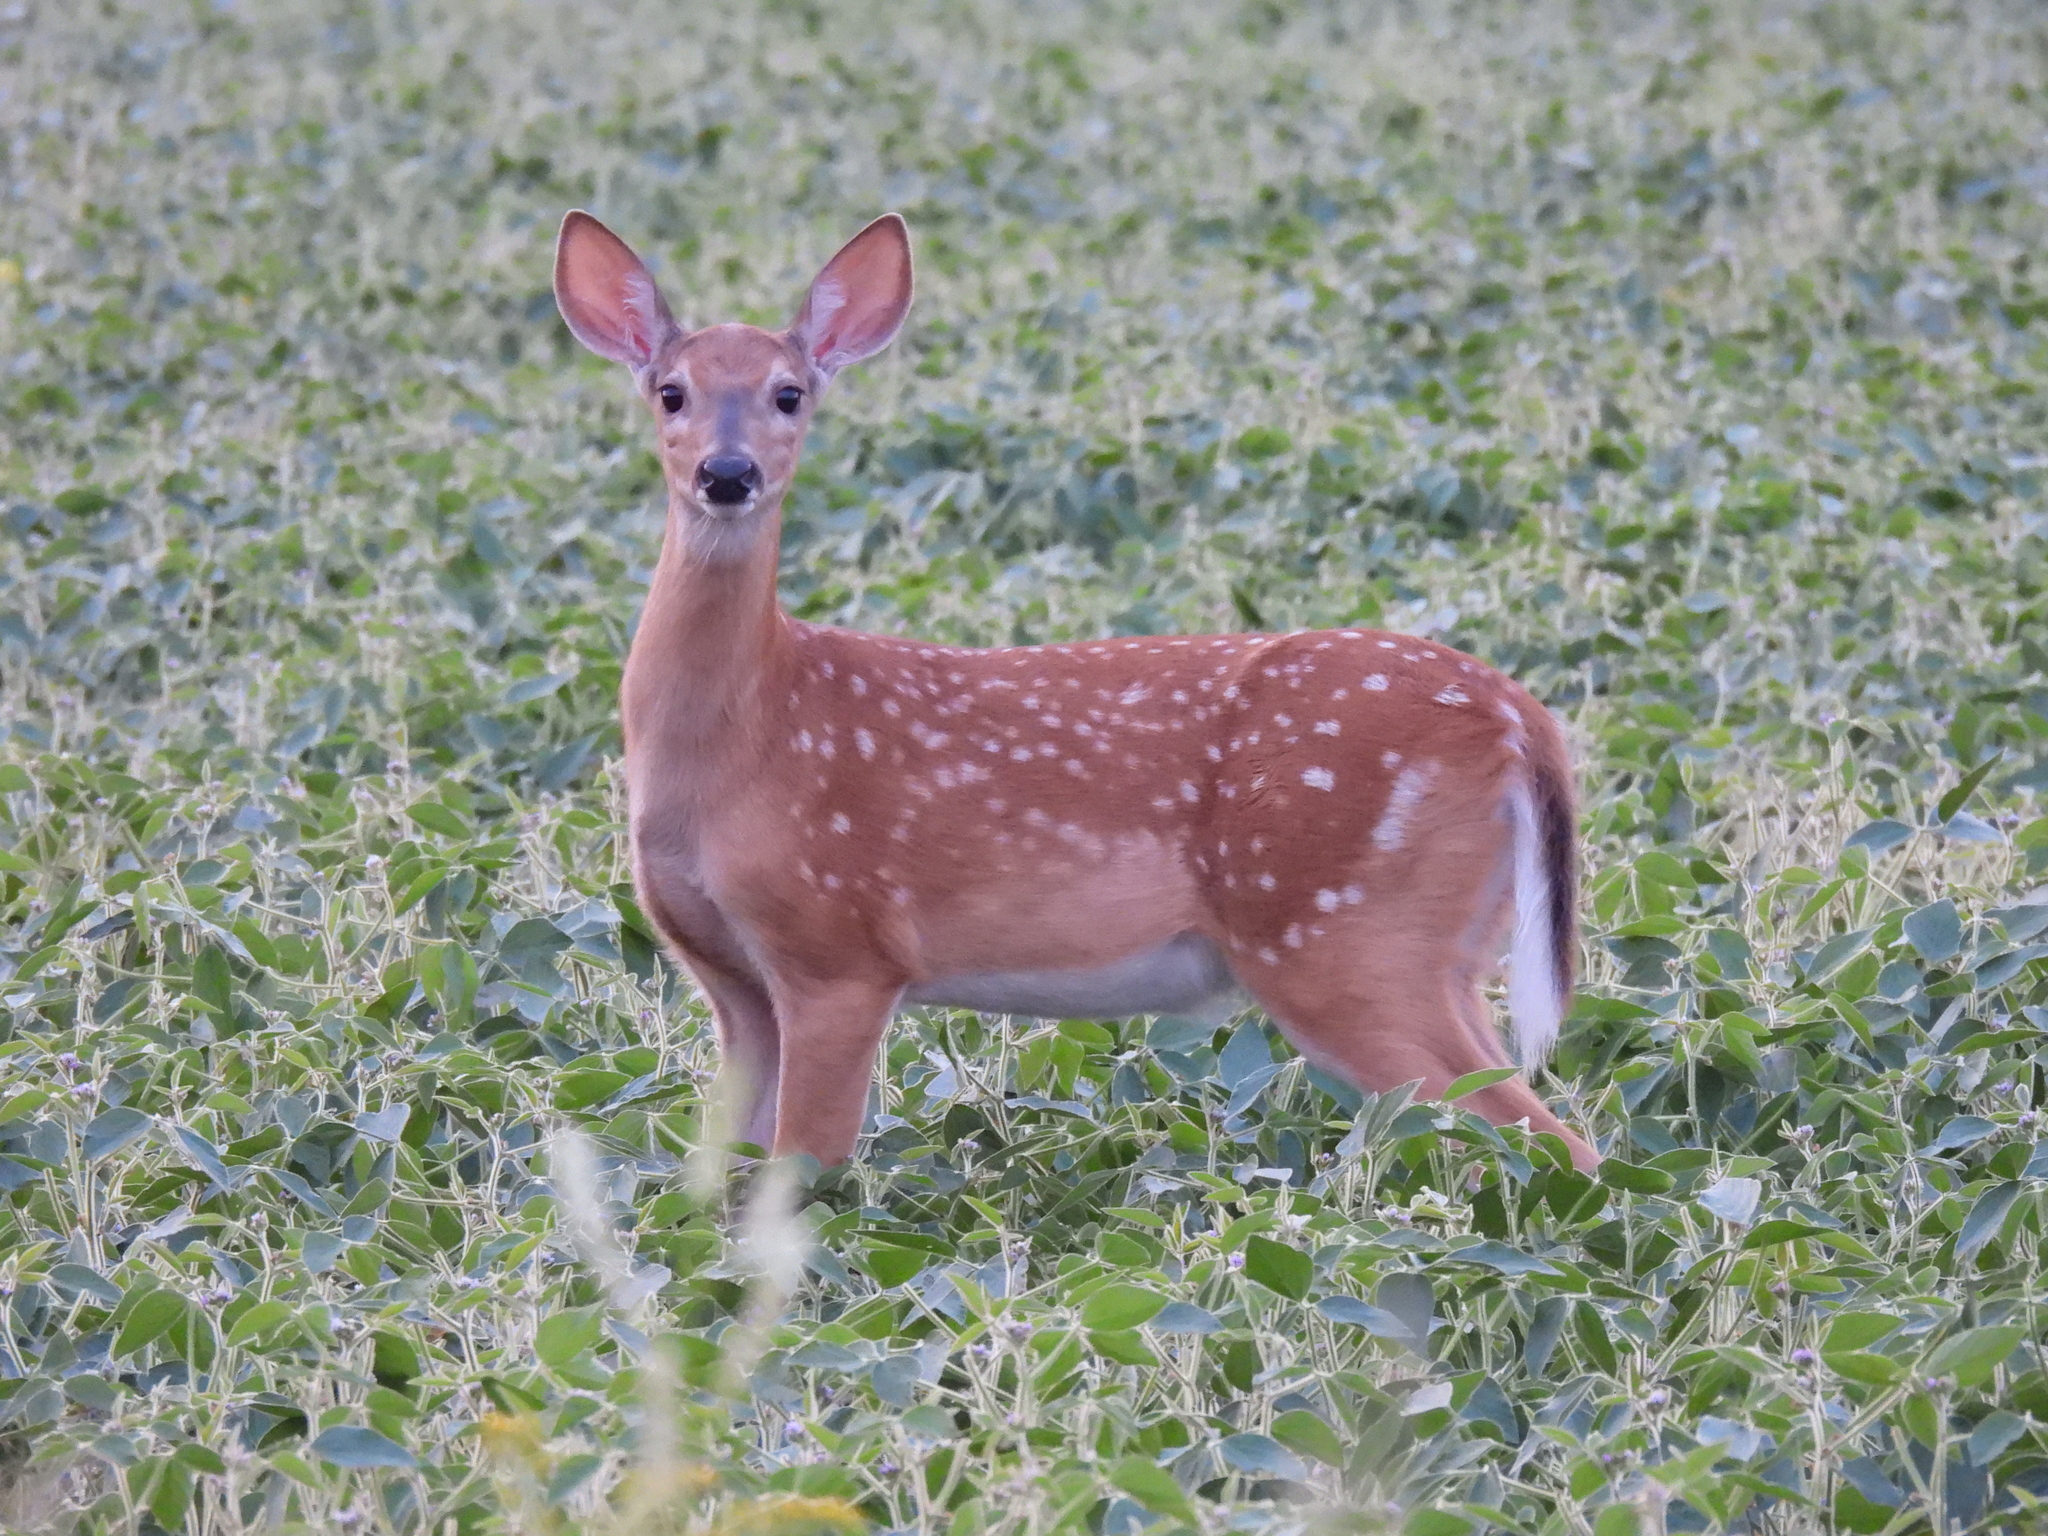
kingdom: Animalia
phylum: Chordata
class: Mammalia
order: Artiodactyla
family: Cervidae
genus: Odocoileus
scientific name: Odocoileus virginianus
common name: White-tailed deer
